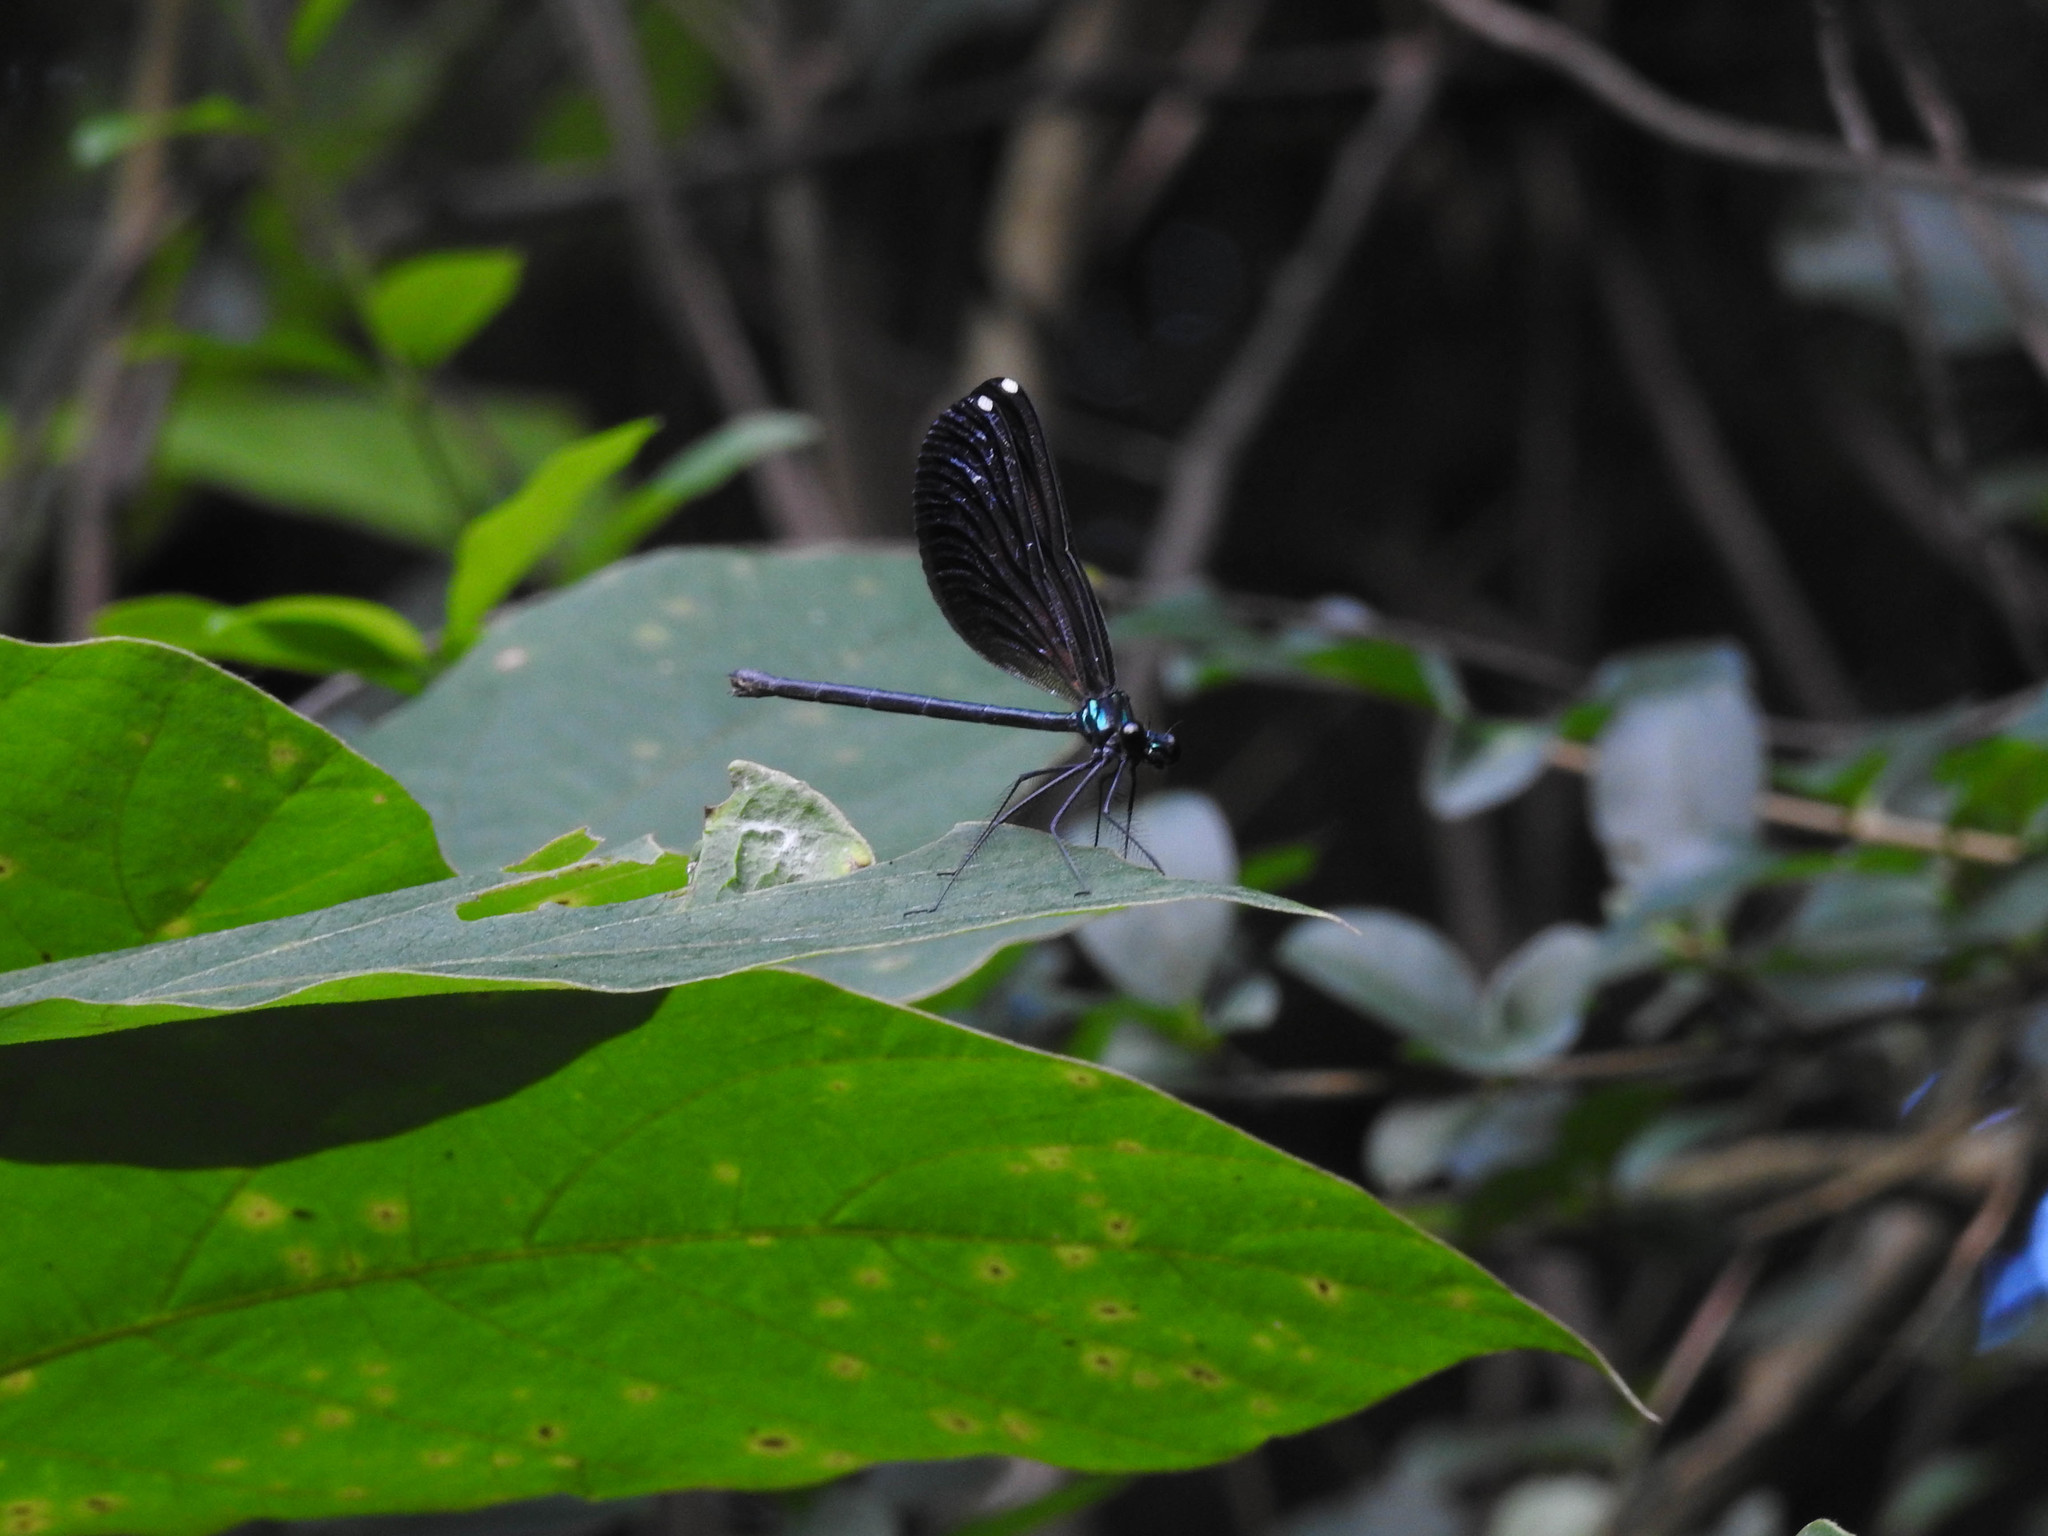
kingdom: Animalia
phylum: Arthropoda
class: Insecta
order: Odonata
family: Calopterygidae
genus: Calopteryx
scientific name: Calopteryx maculata
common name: Ebony jewelwing
